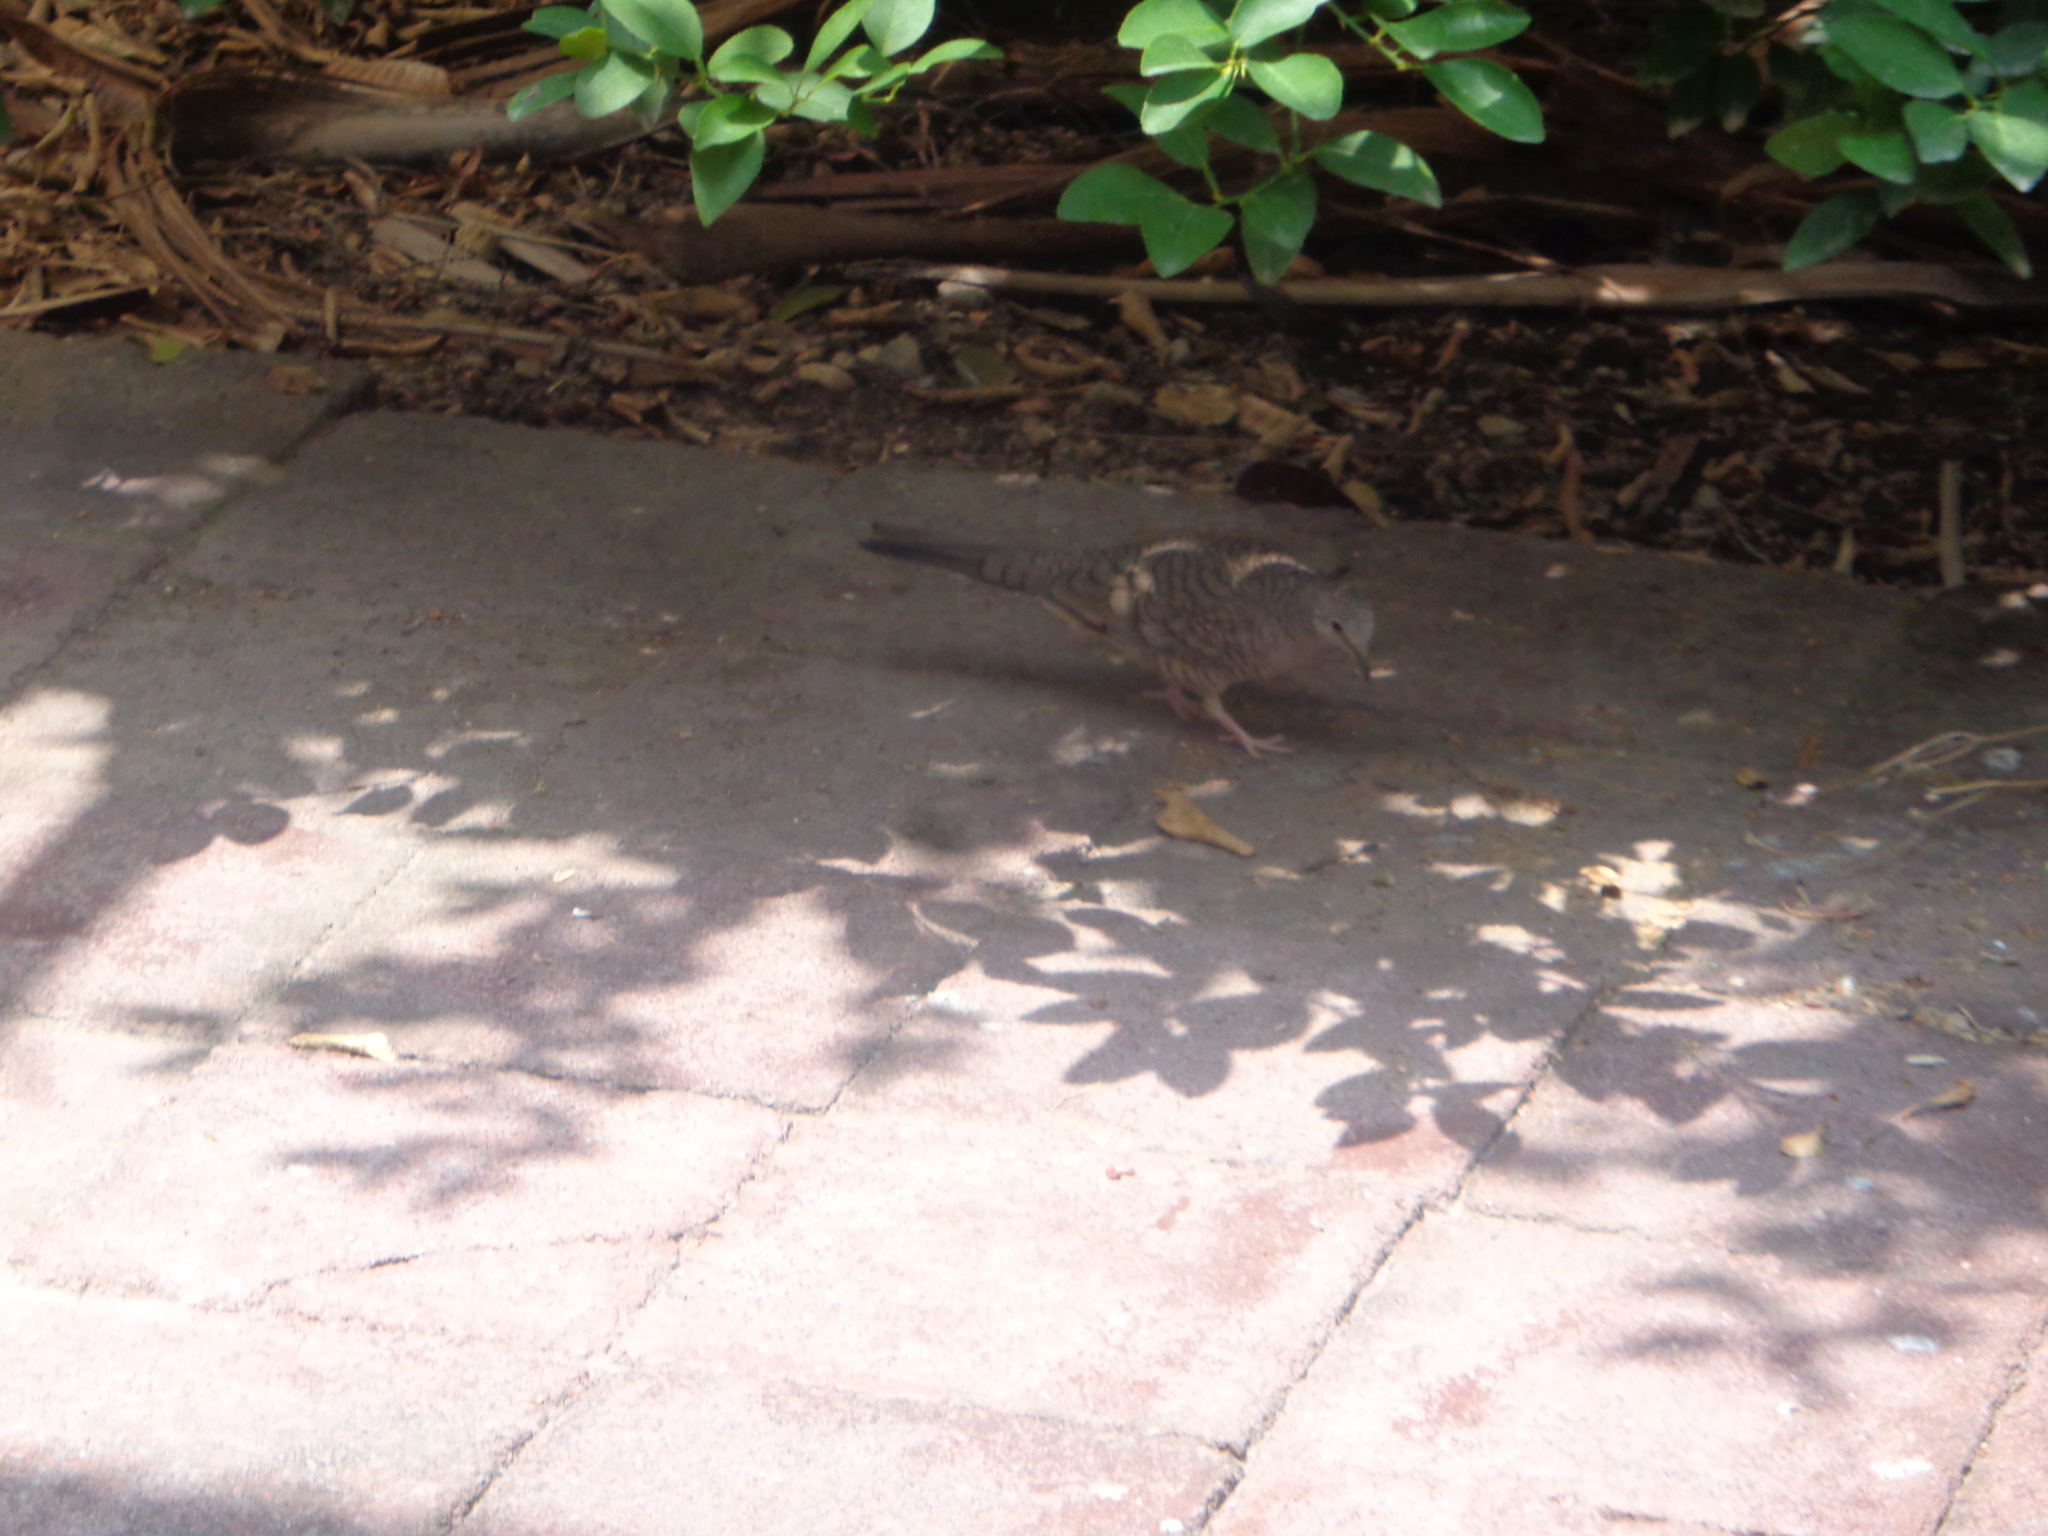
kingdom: Animalia
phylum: Chordata
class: Aves
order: Columbiformes
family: Columbidae
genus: Columbina
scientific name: Columbina inca
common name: Inca dove
